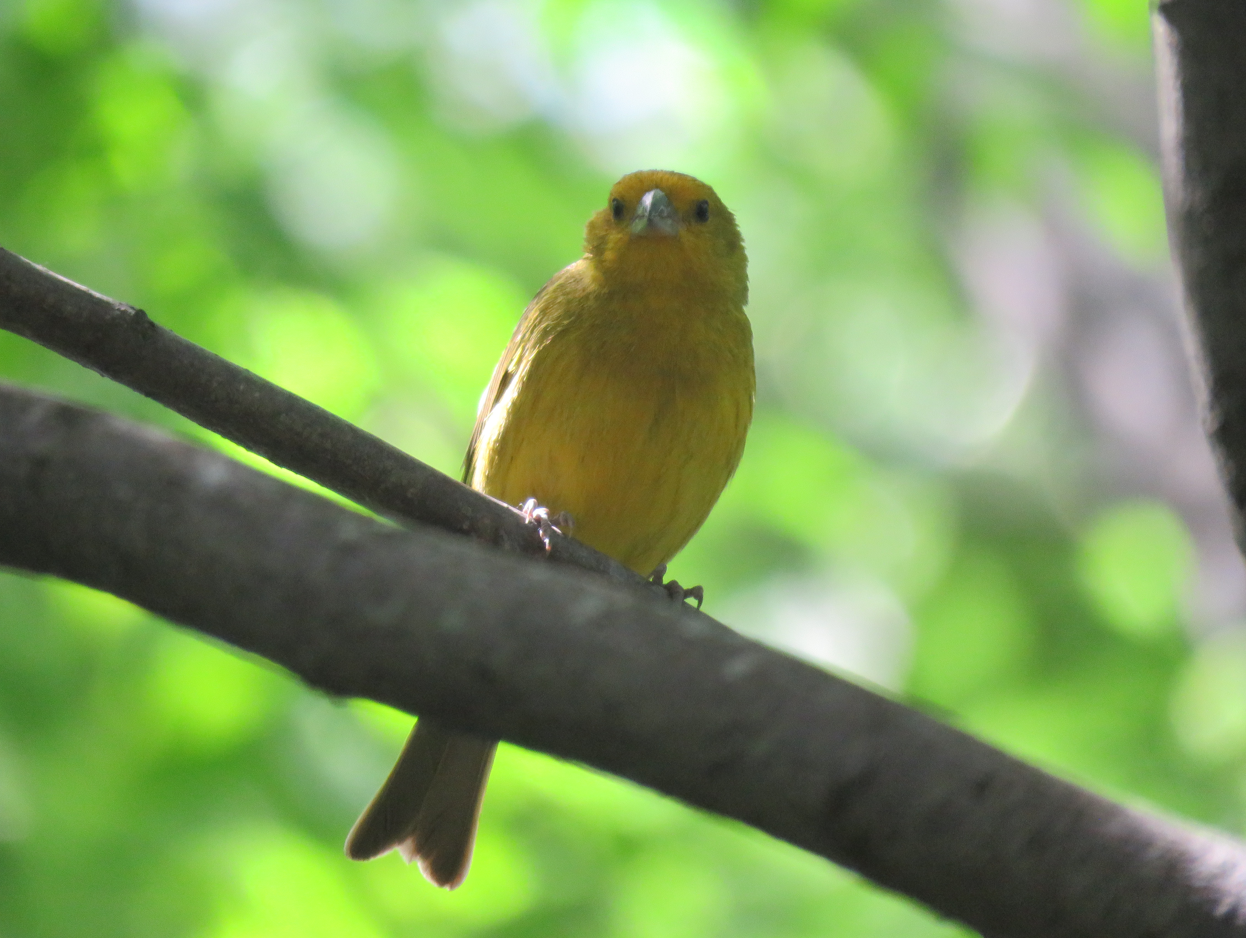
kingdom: Animalia
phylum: Chordata
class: Aves
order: Passeriformes
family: Thraupidae
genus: Sicalis
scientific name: Sicalis flaveola
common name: Saffron finch
